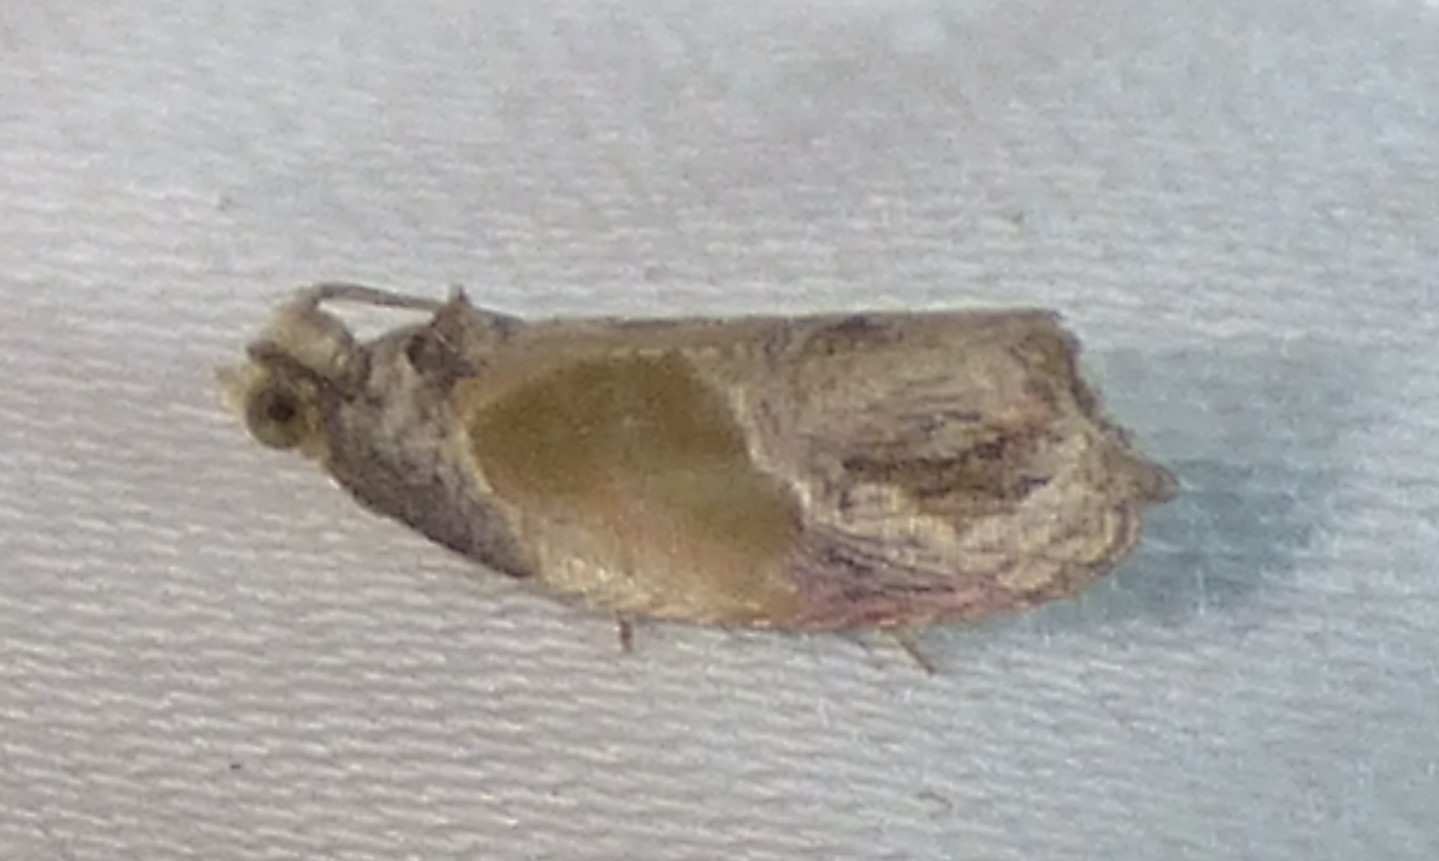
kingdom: Animalia
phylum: Arthropoda
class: Insecta
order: Lepidoptera
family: Tortricidae
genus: Eumarozia
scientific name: Eumarozia malachitana
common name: Sculptured moth
